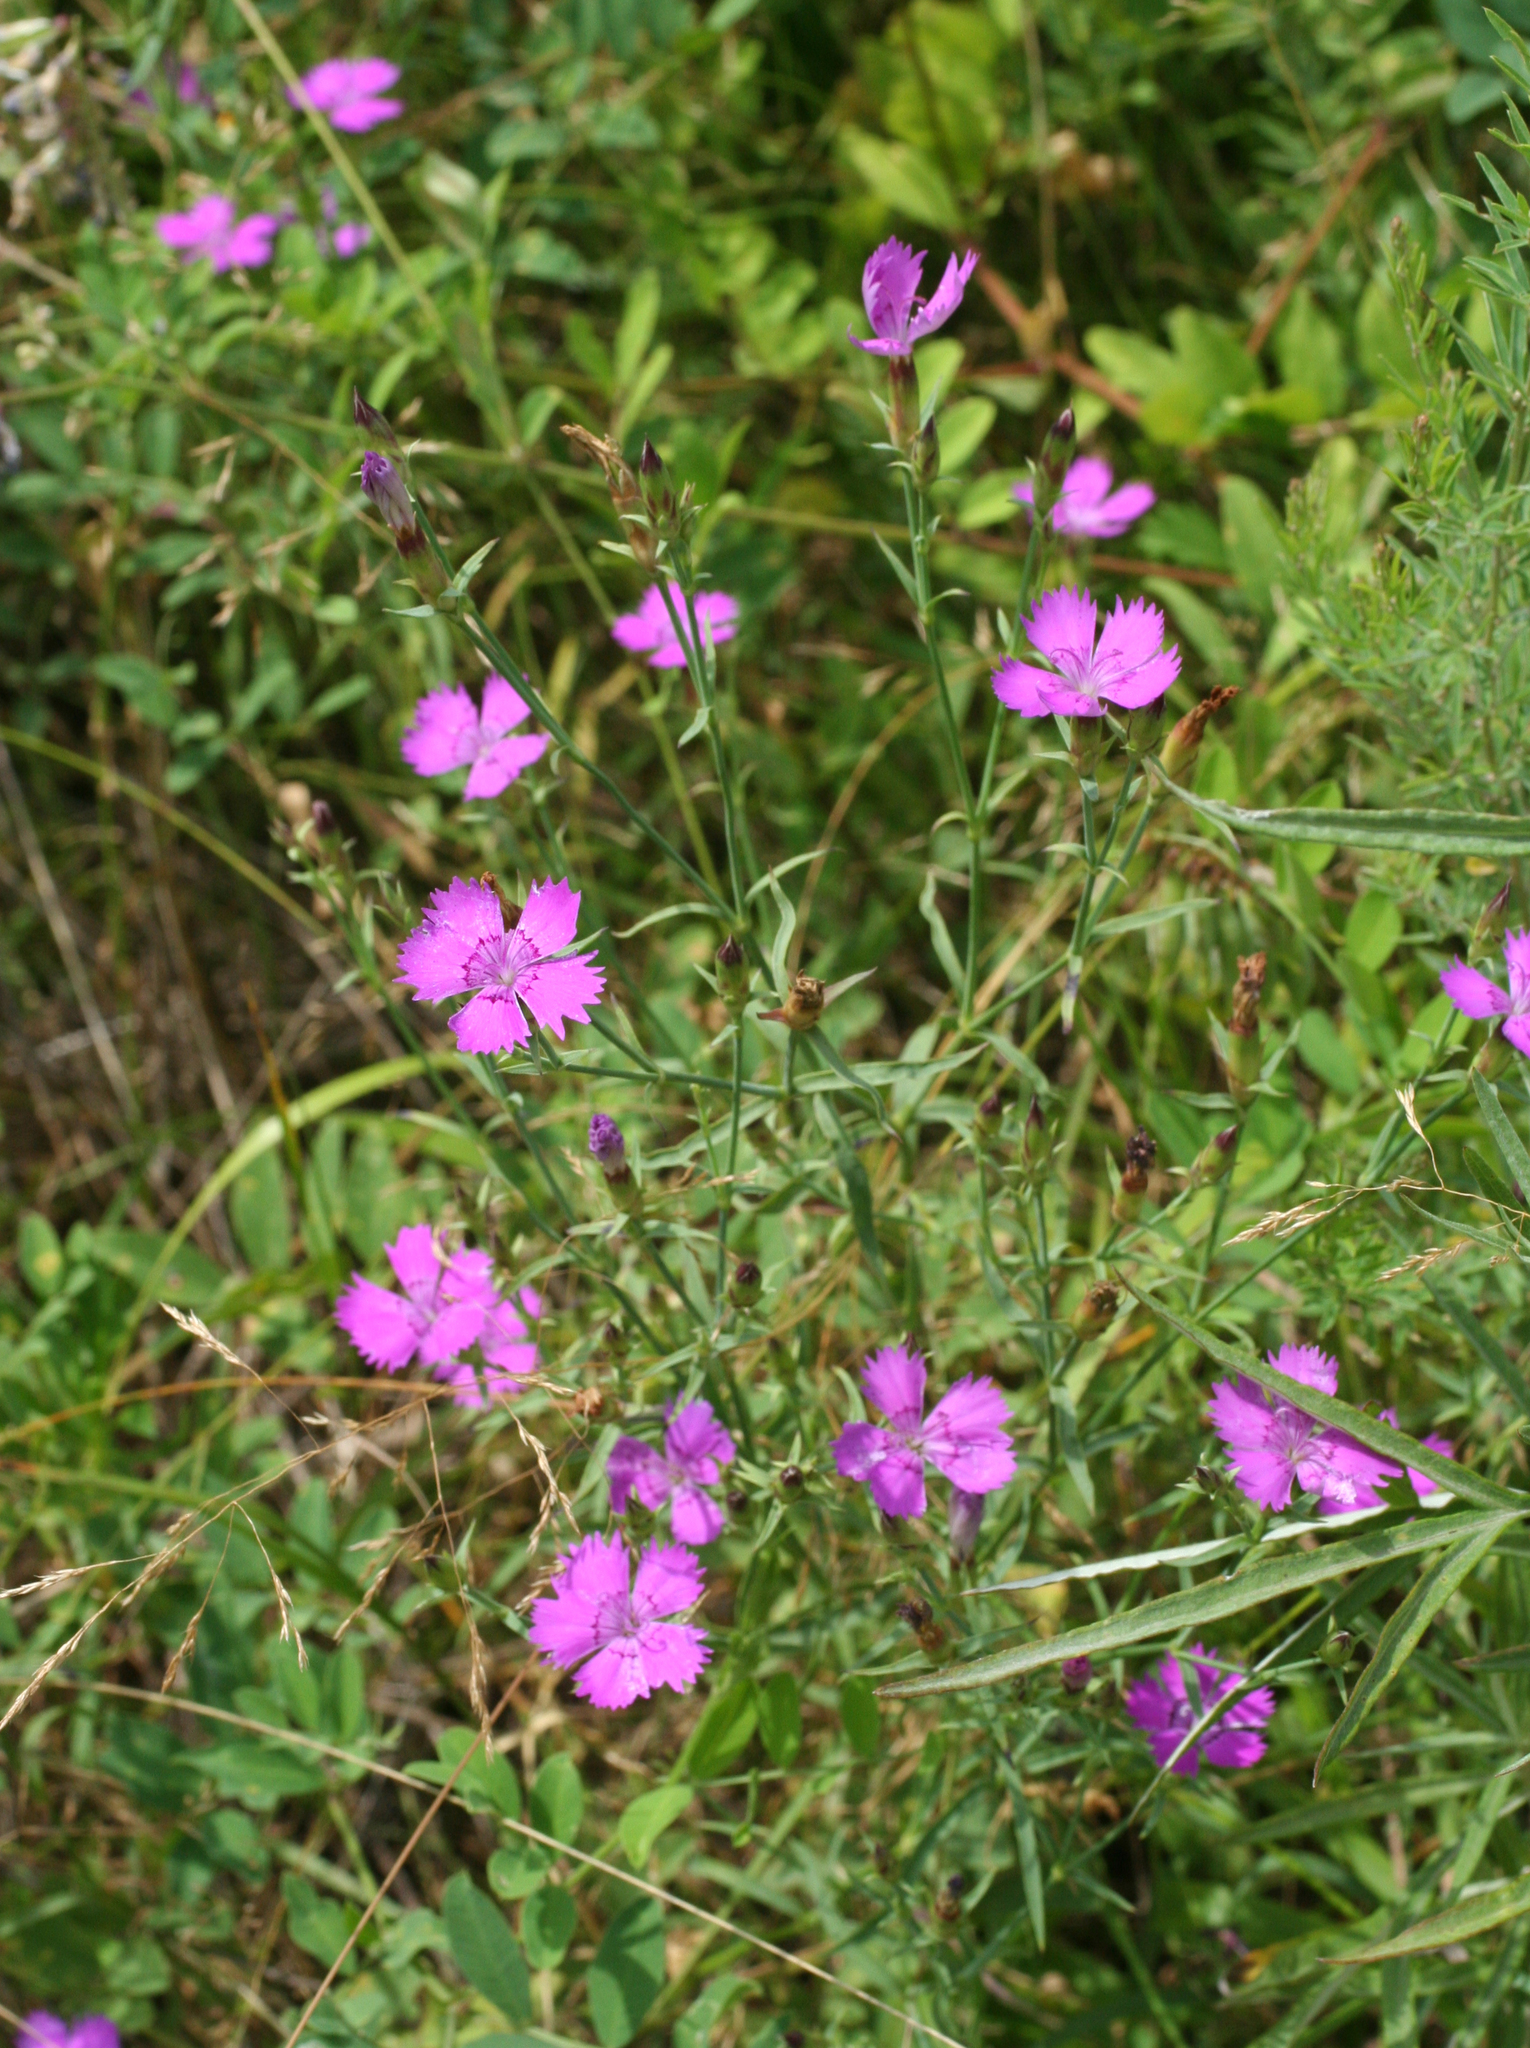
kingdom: Plantae
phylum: Tracheophyta
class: Magnoliopsida
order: Caryophyllales
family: Caryophyllaceae
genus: Dianthus
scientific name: Dianthus chinensis
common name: Rainbow pink
